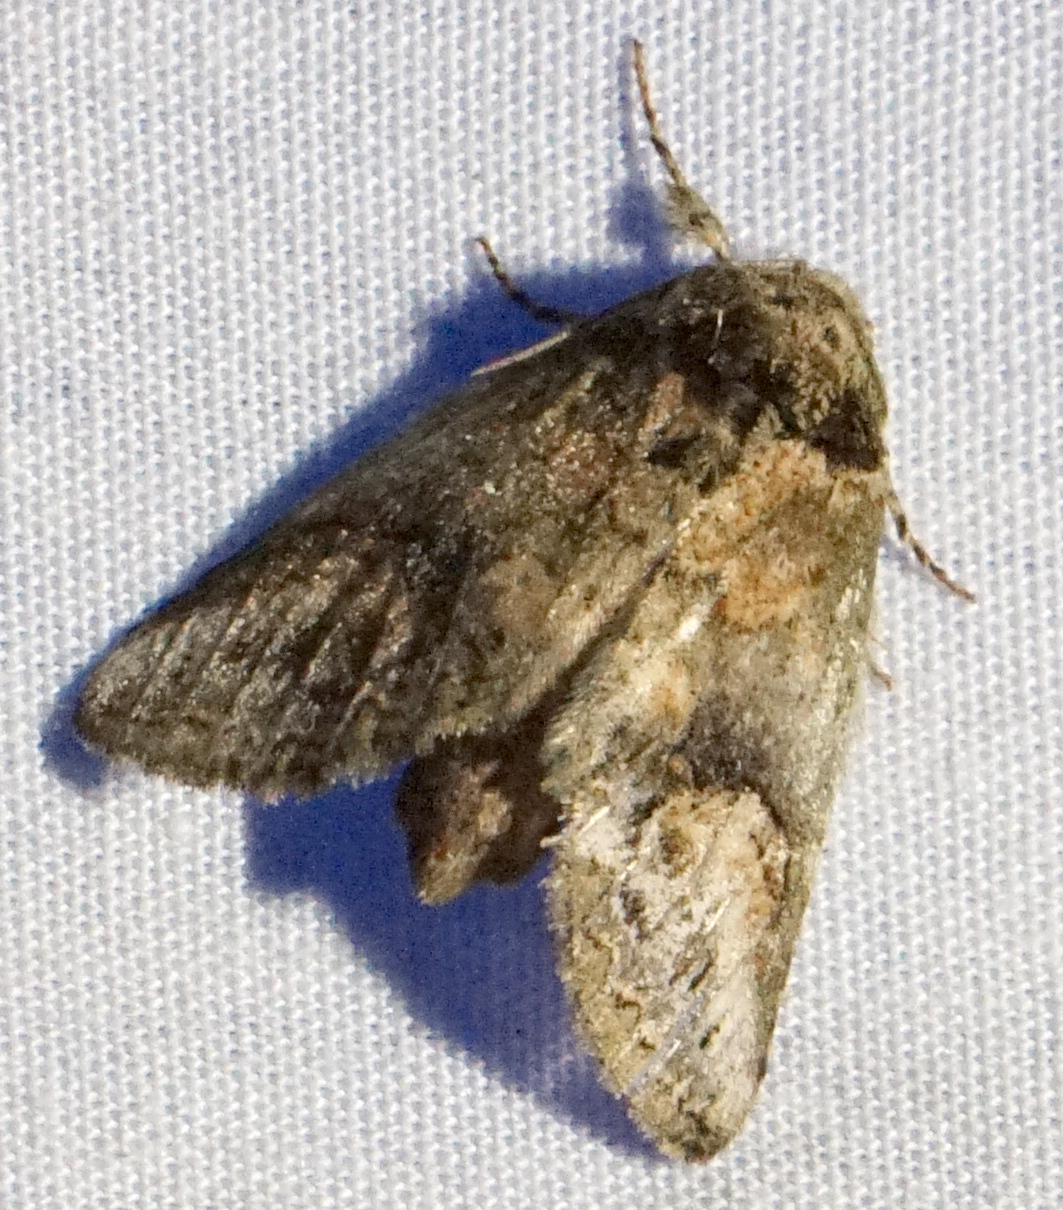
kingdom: Animalia
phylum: Arthropoda
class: Insecta
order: Lepidoptera
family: Notodontidae
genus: Rifargia
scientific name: Rifargia
